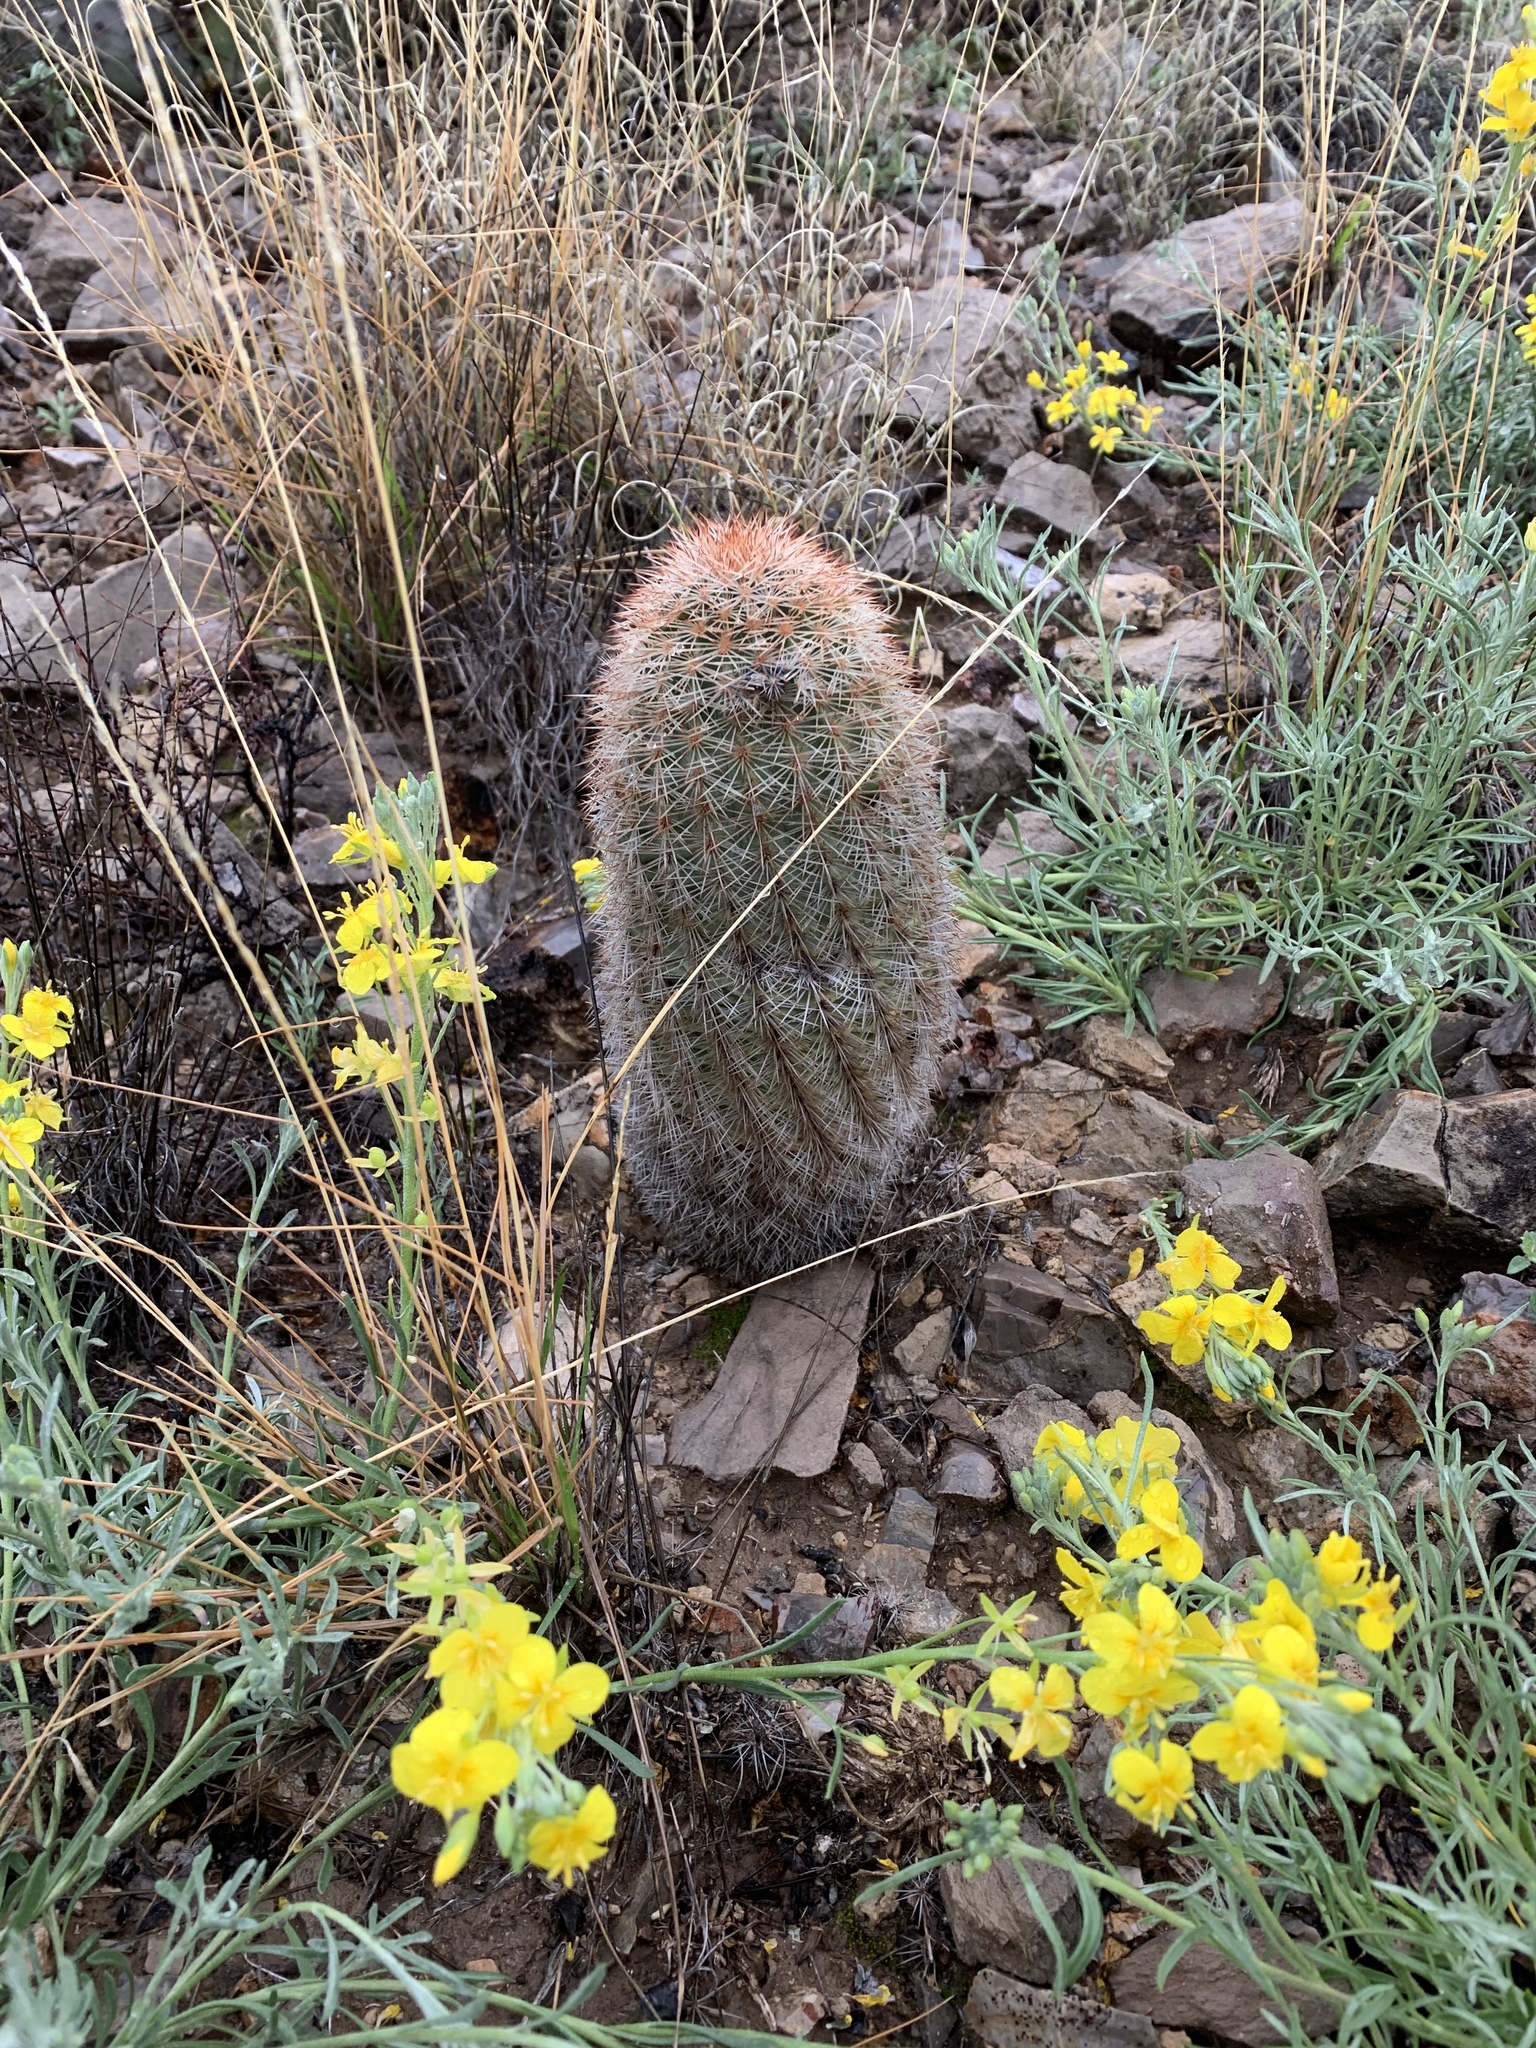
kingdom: Plantae
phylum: Tracheophyta
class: Magnoliopsida
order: Caryophyllales
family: Cactaceae
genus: Echinocereus
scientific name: Echinocereus dasyacanthus
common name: Spiny hedgehog cactus
